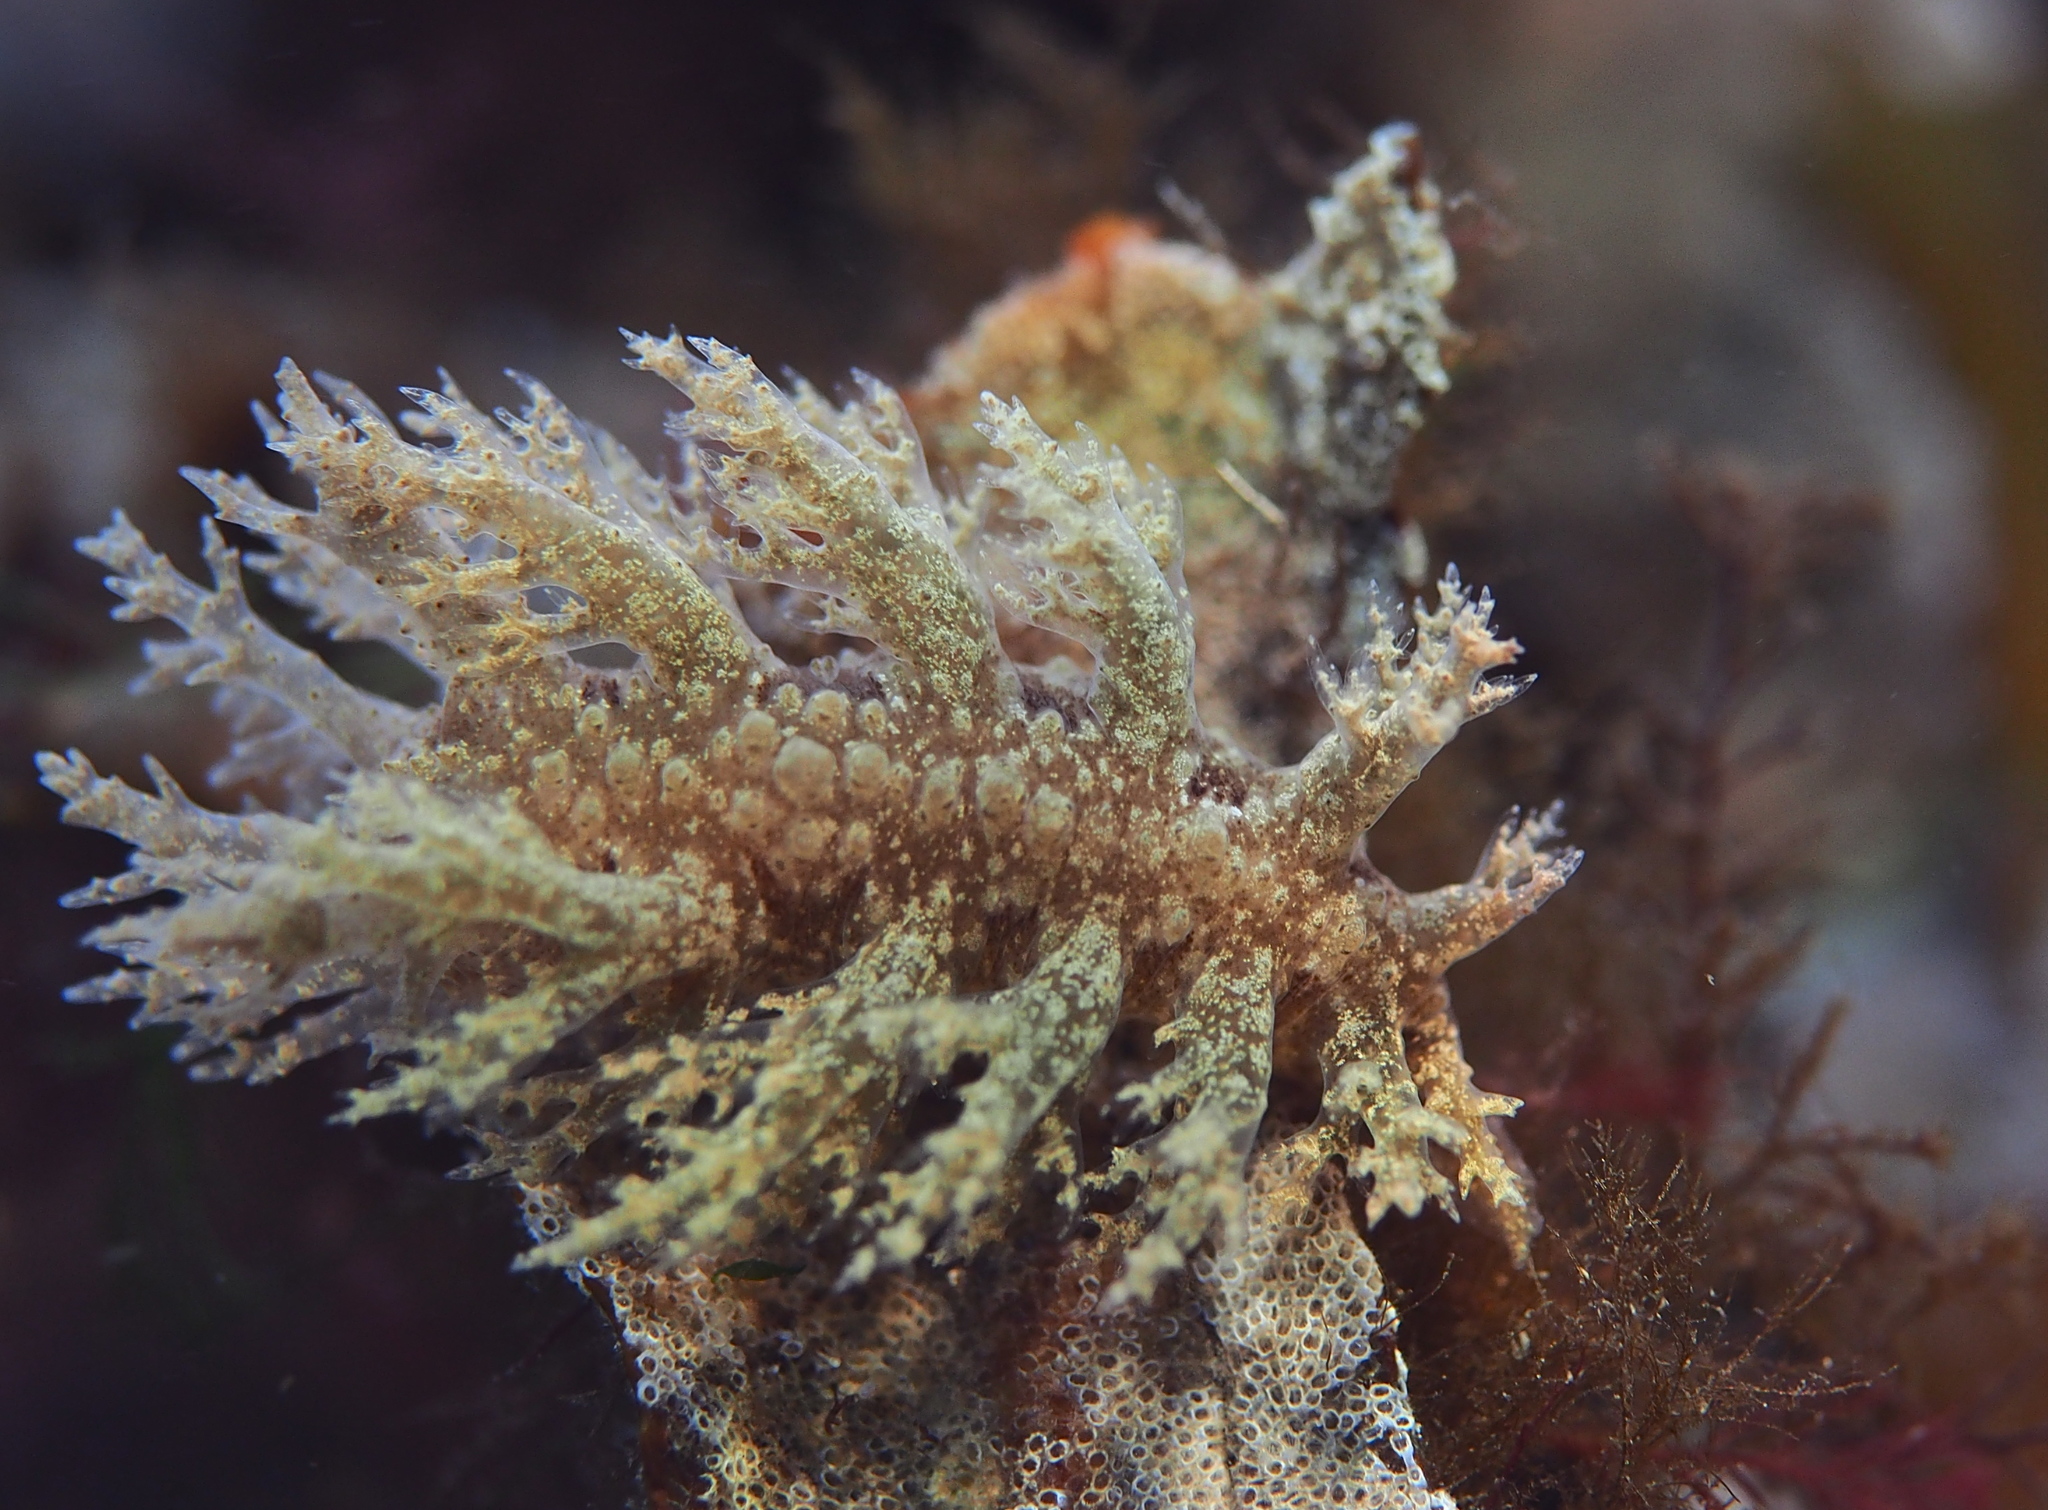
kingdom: Animalia
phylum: Mollusca
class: Gastropoda
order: Nudibranchia
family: Dendronotidae
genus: Dendronotus
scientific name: Dendronotus frondosus
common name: Bushy-backed nudibranch
